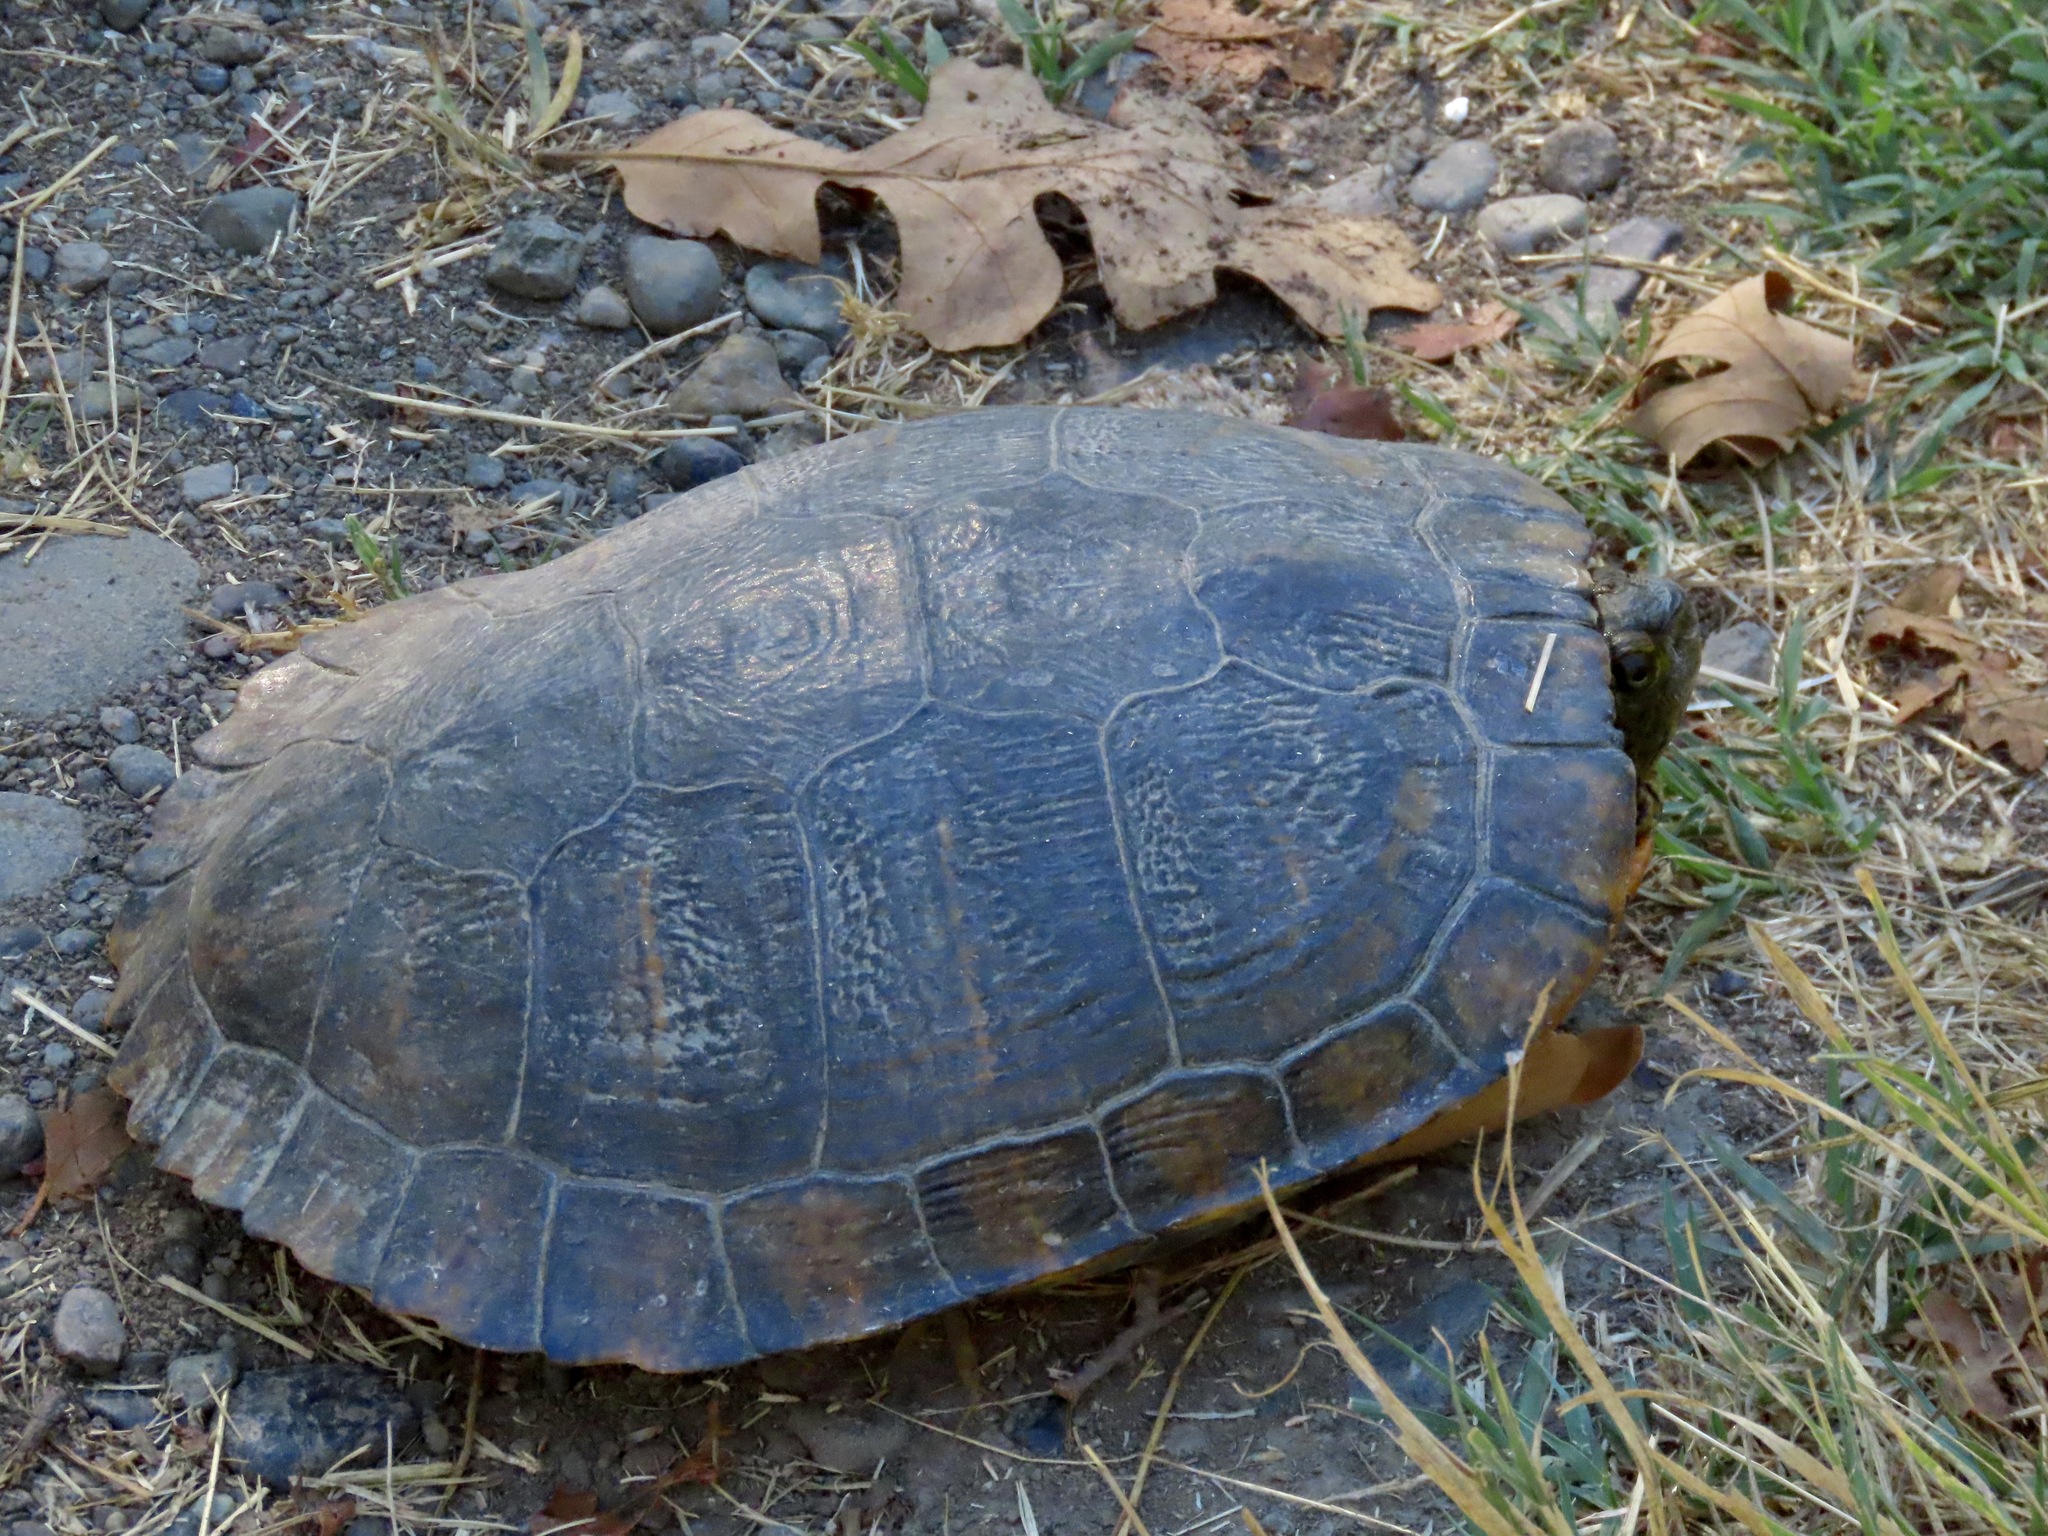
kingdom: Animalia
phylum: Chordata
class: Testudines
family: Emydidae
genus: Trachemys
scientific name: Trachemys scripta
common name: Slider
